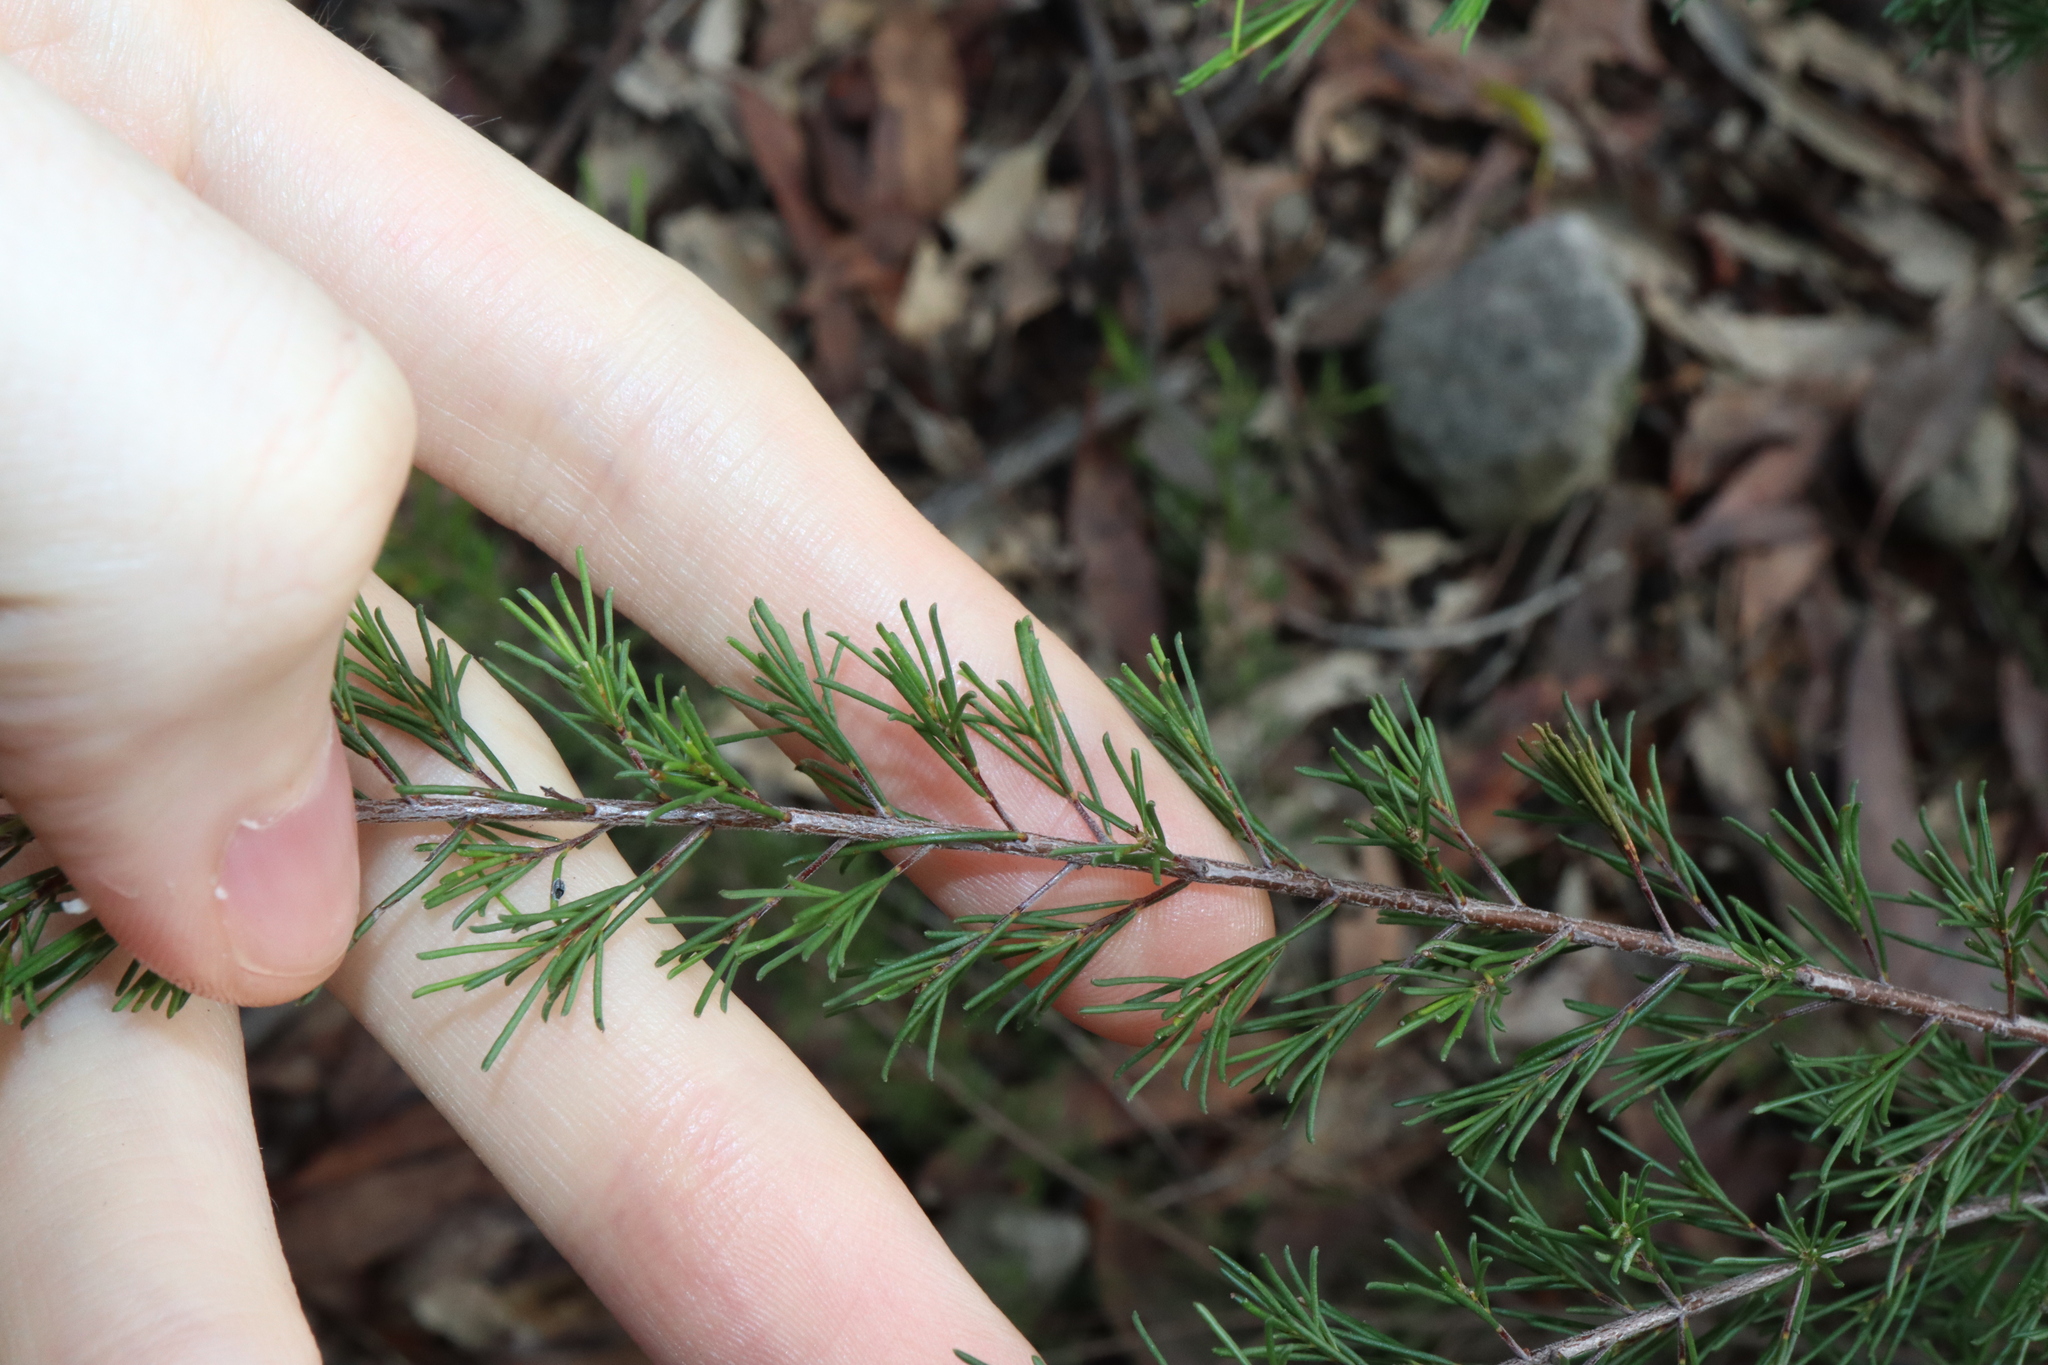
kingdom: Plantae
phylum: Tracheophyta
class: Magnoliopsida
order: Fabales
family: Fabaceae
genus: Dillwynia
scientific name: Dillwynia tenuifolia
